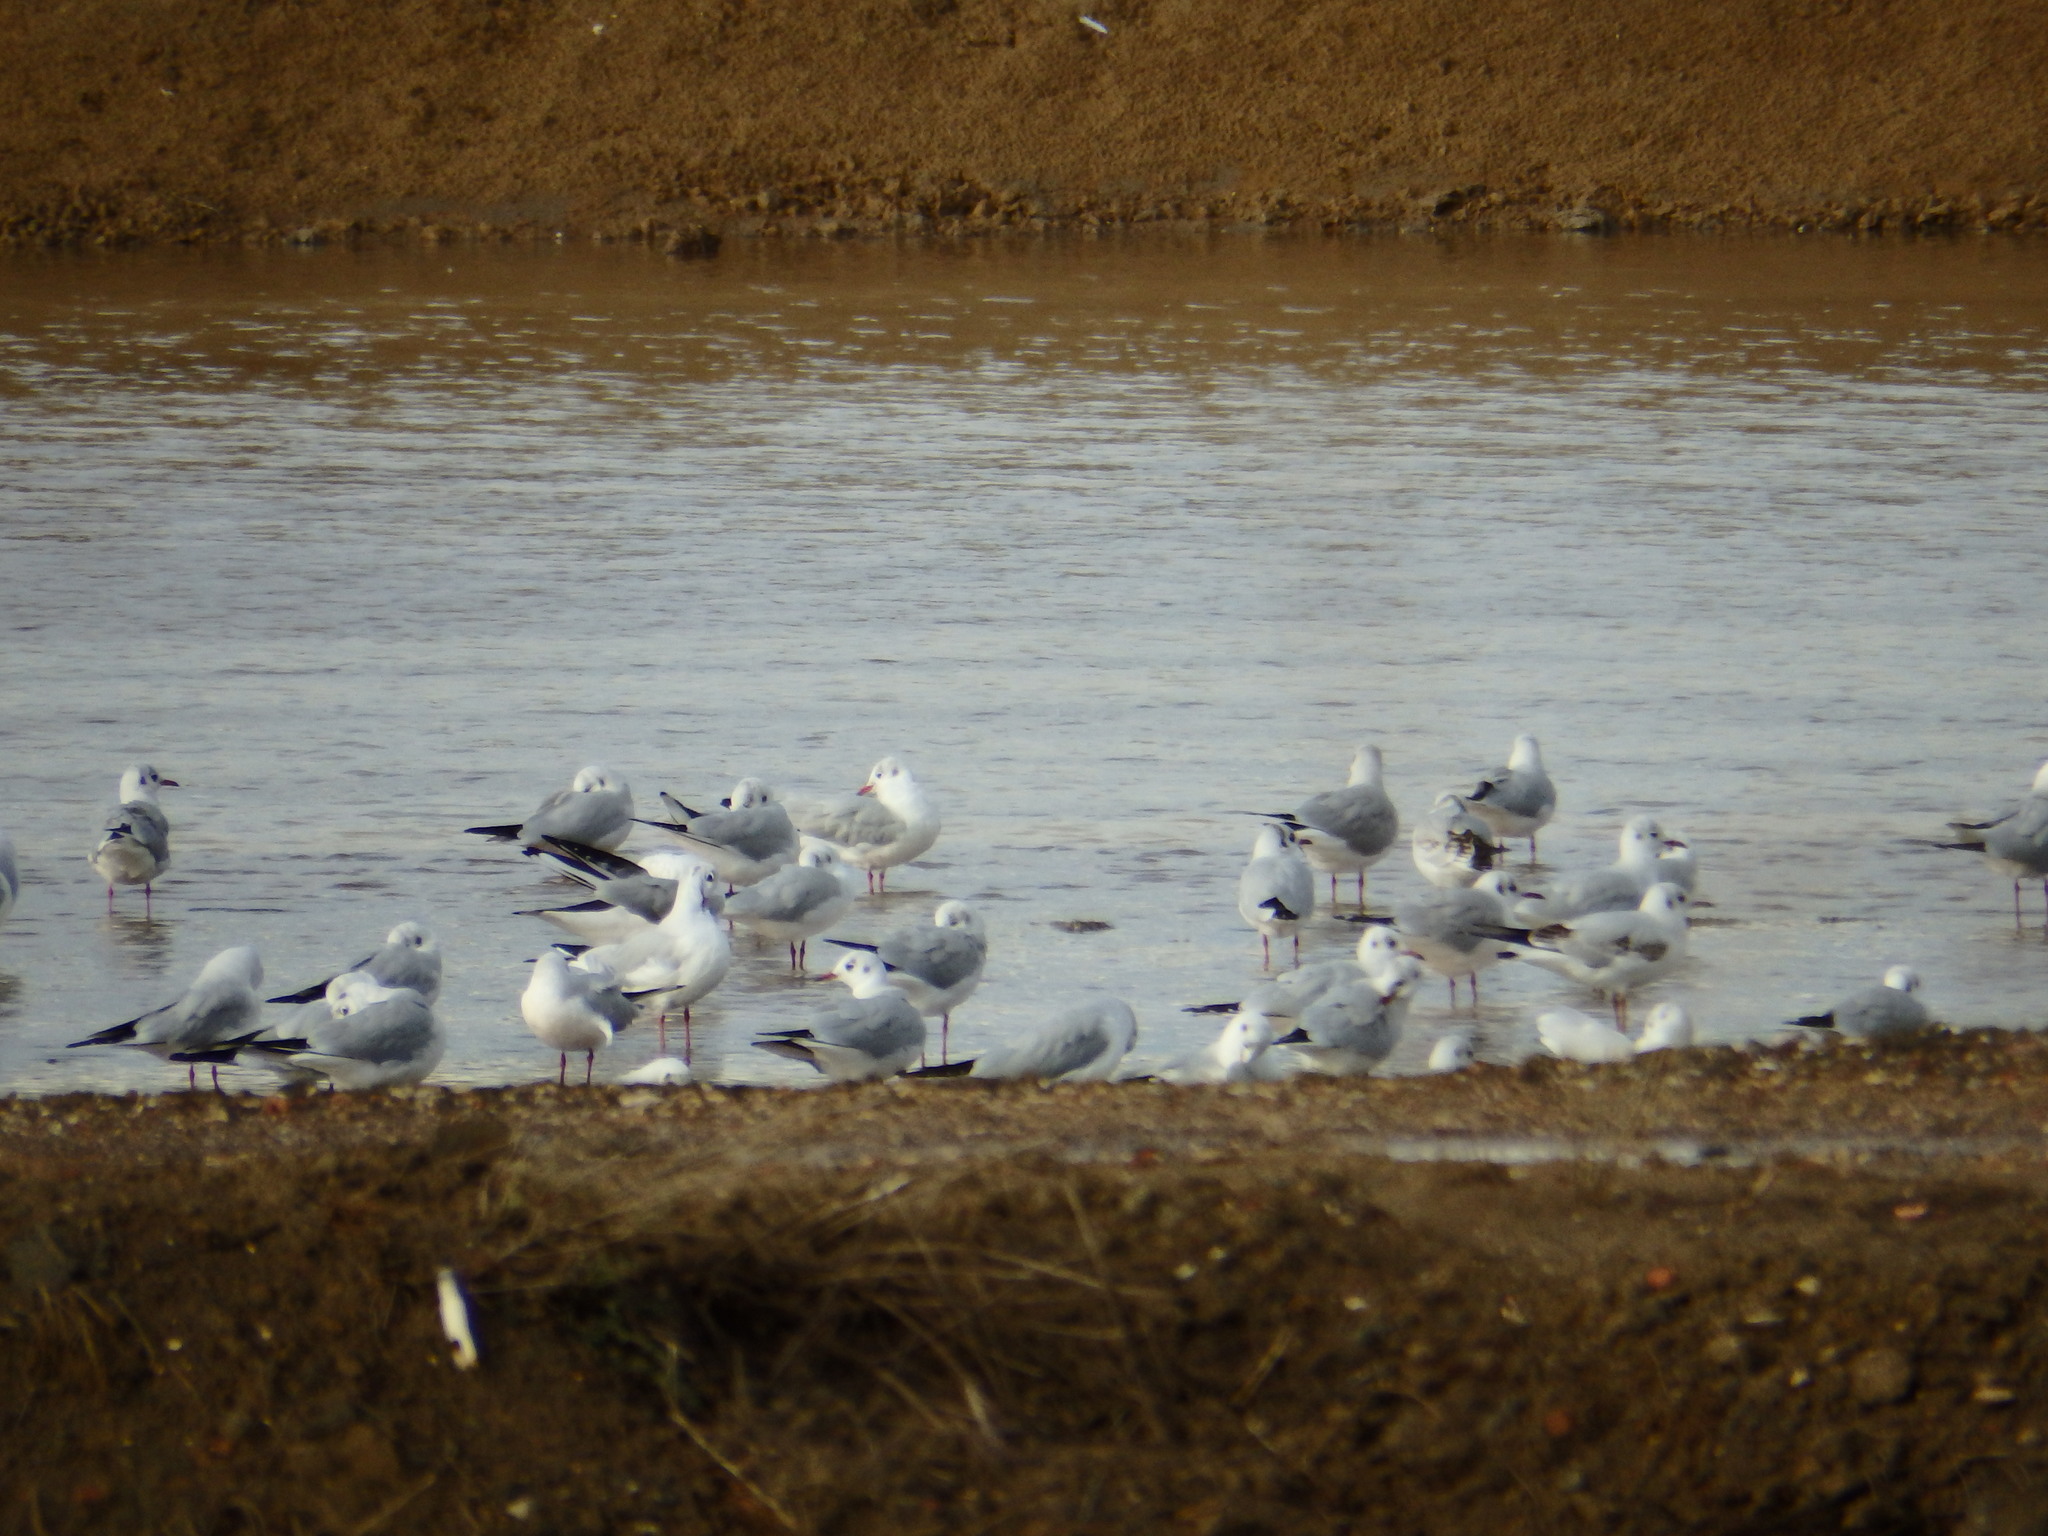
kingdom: Animalia
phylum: Chordata
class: Aves
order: Charadriiformes
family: Laridae
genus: Chroicocephalus
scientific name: Chroicocephalus ridibundus
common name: Black-headed gull
